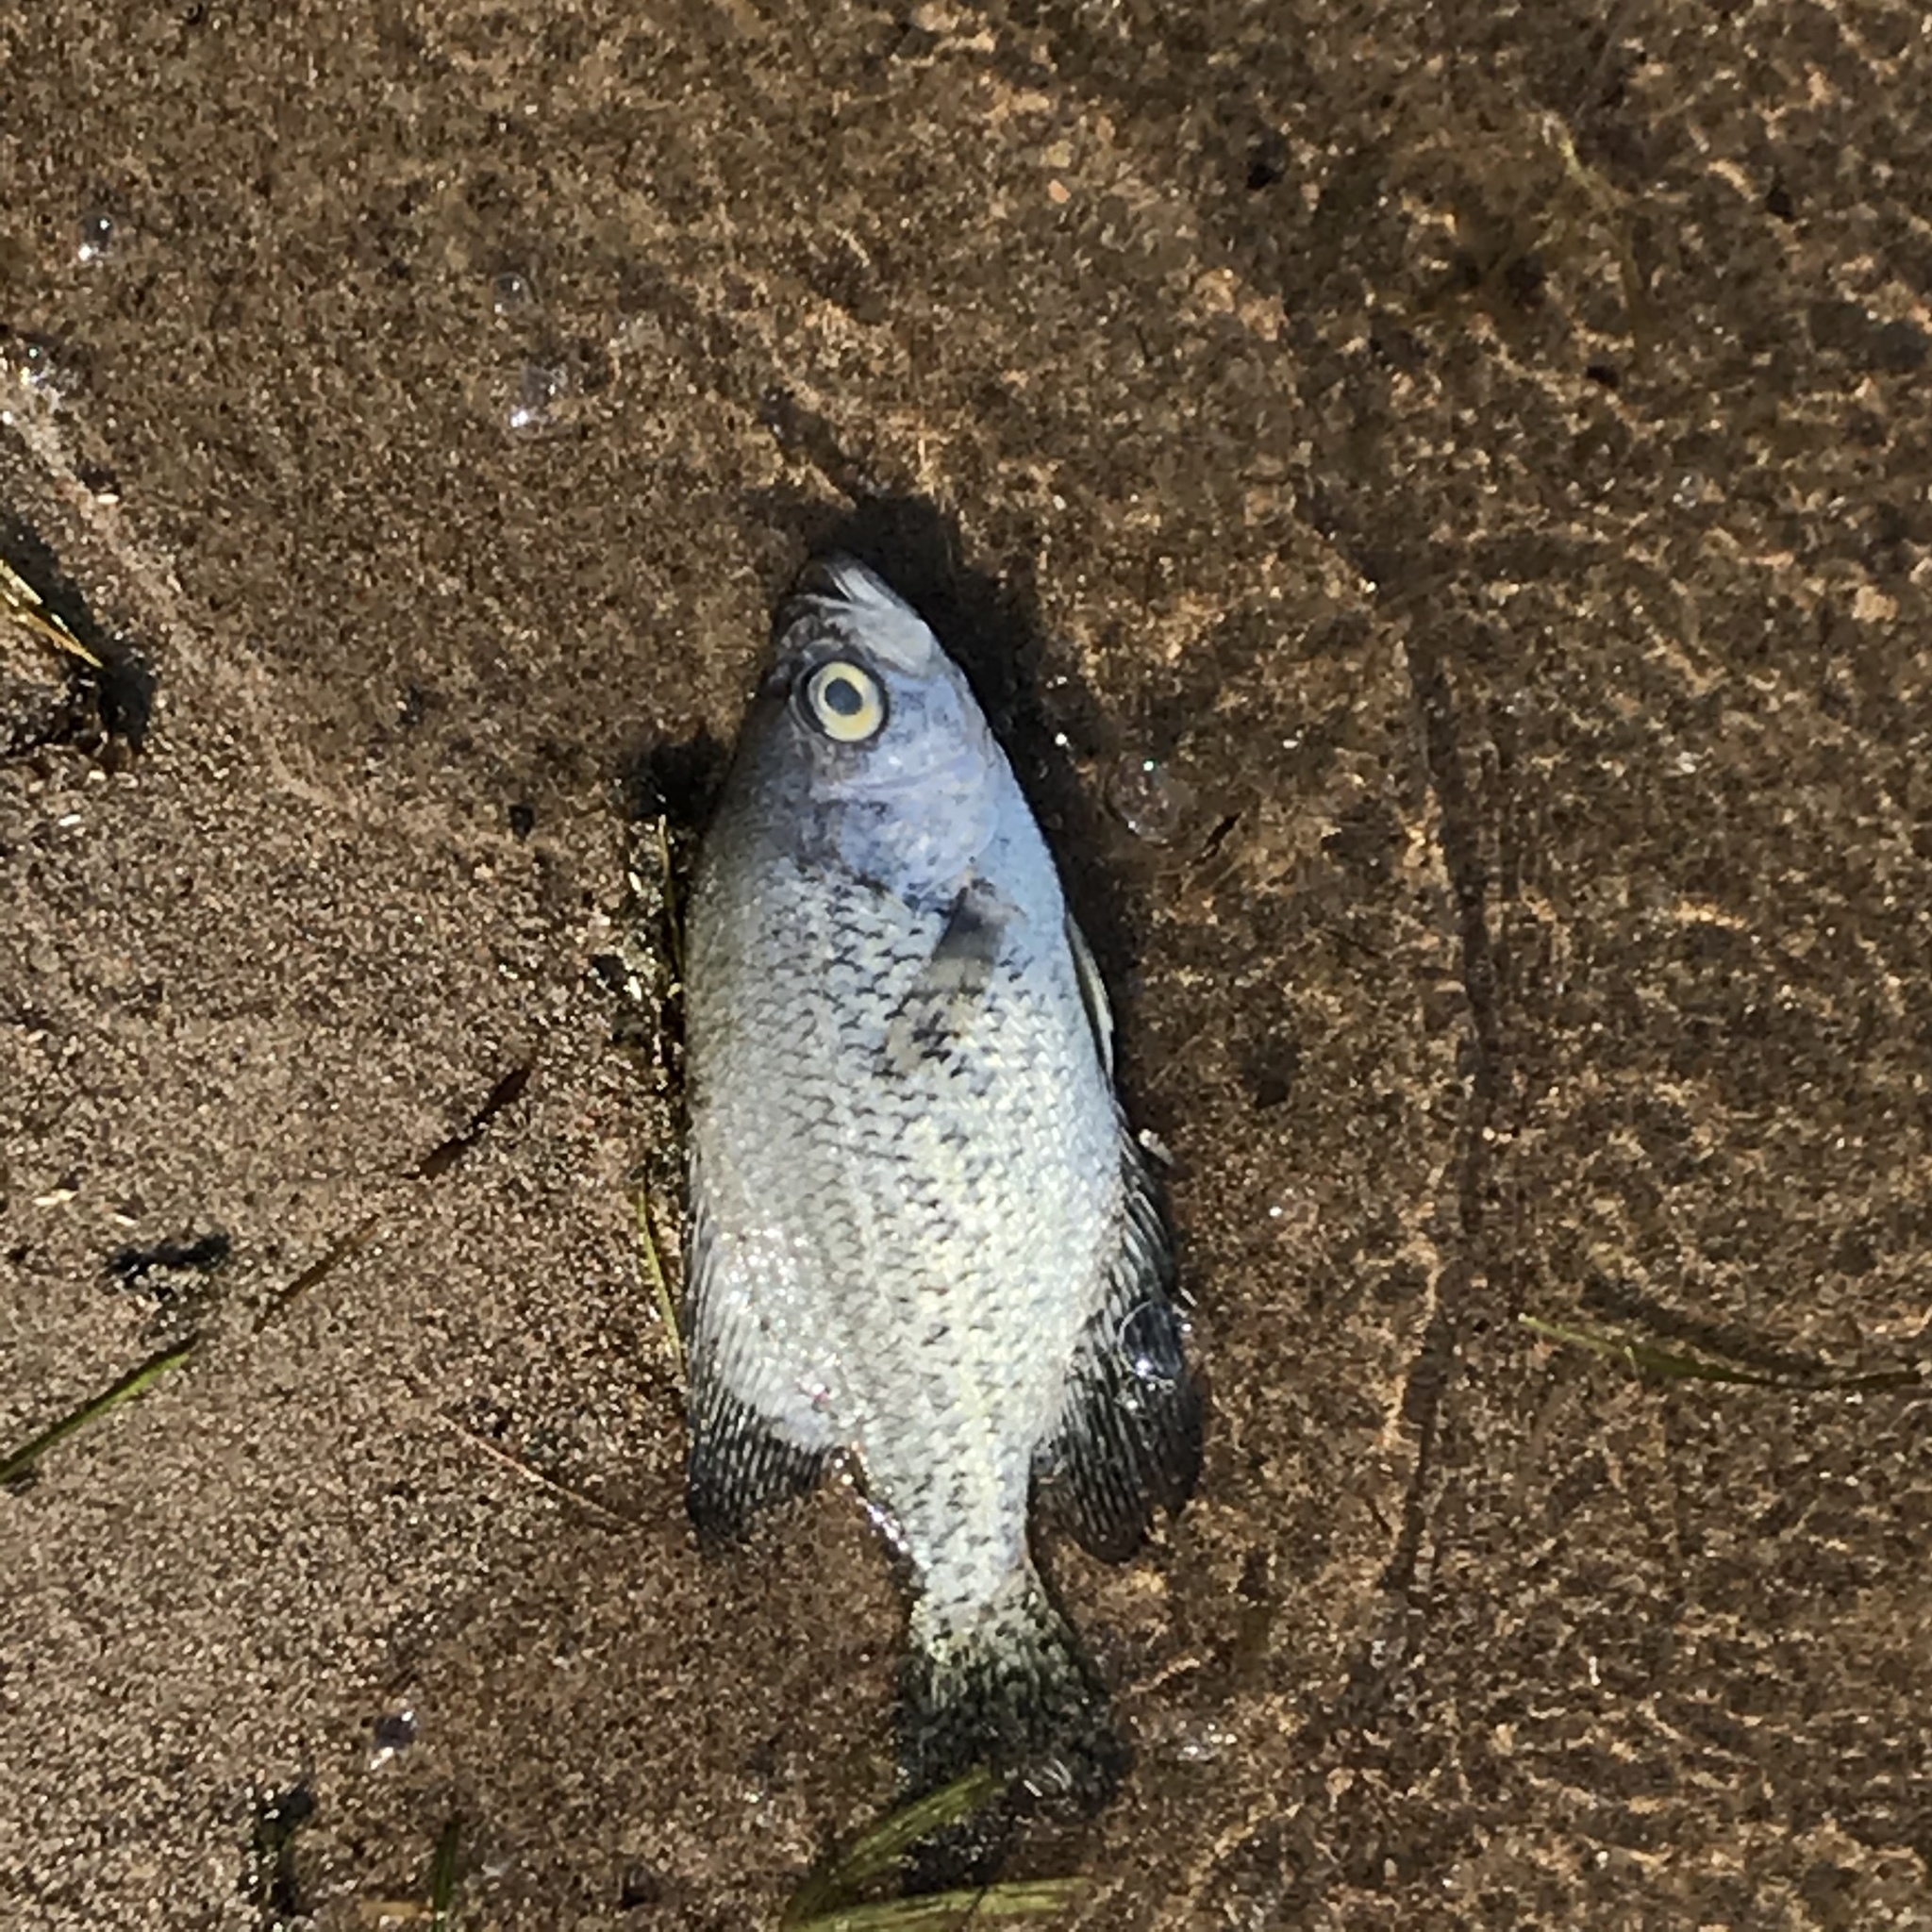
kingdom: Animalia
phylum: Chordata
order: Perciformes
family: Centrarchidae
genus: Pomoxis
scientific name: Pomoxis nigromaculatus
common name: Black crappie
